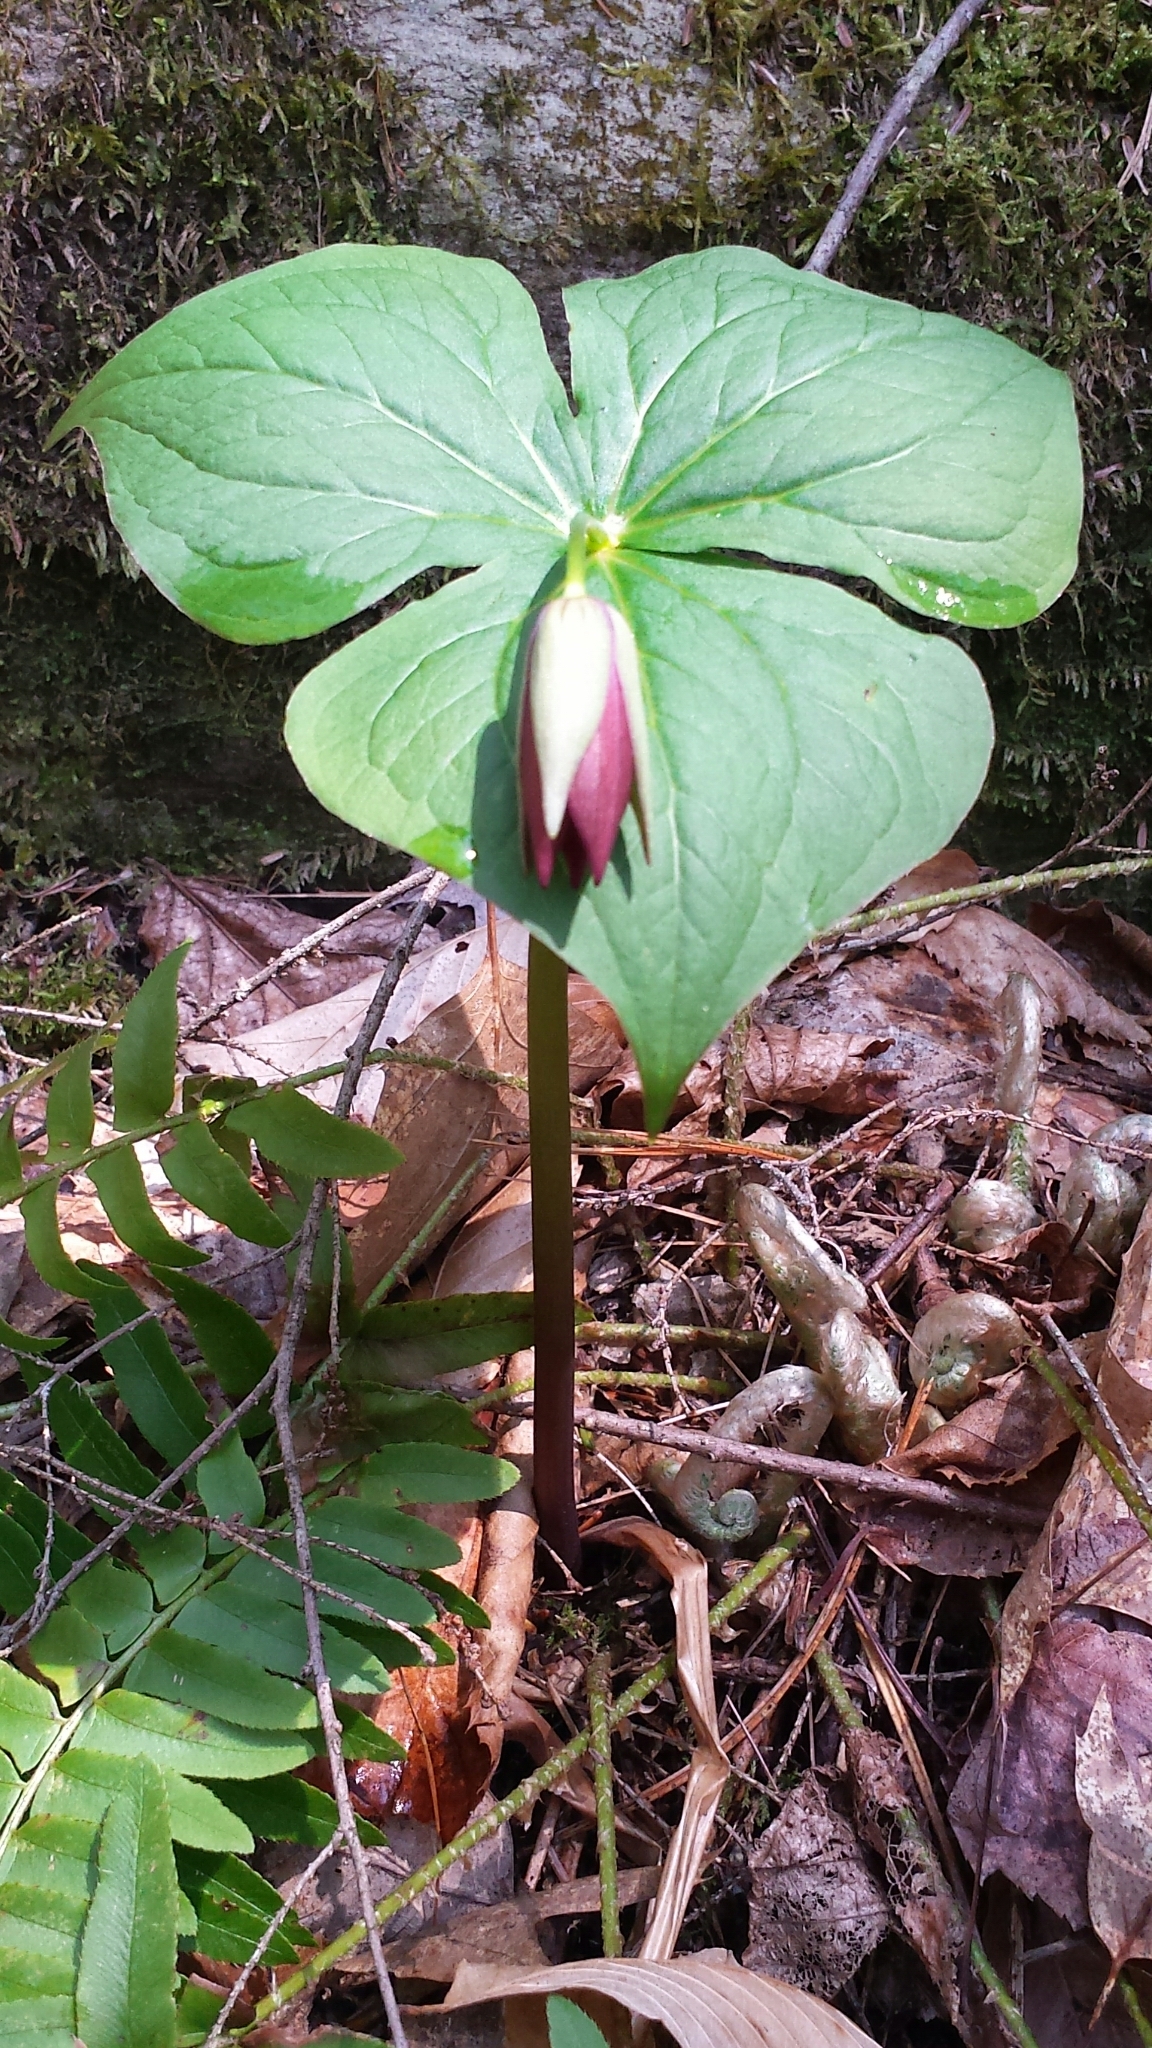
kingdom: Plantae
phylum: Tracheophyta
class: Liliopsida
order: Liliales
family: Melanthiaceae
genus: Trillium
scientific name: Trillium erectum
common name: Purple trillium
